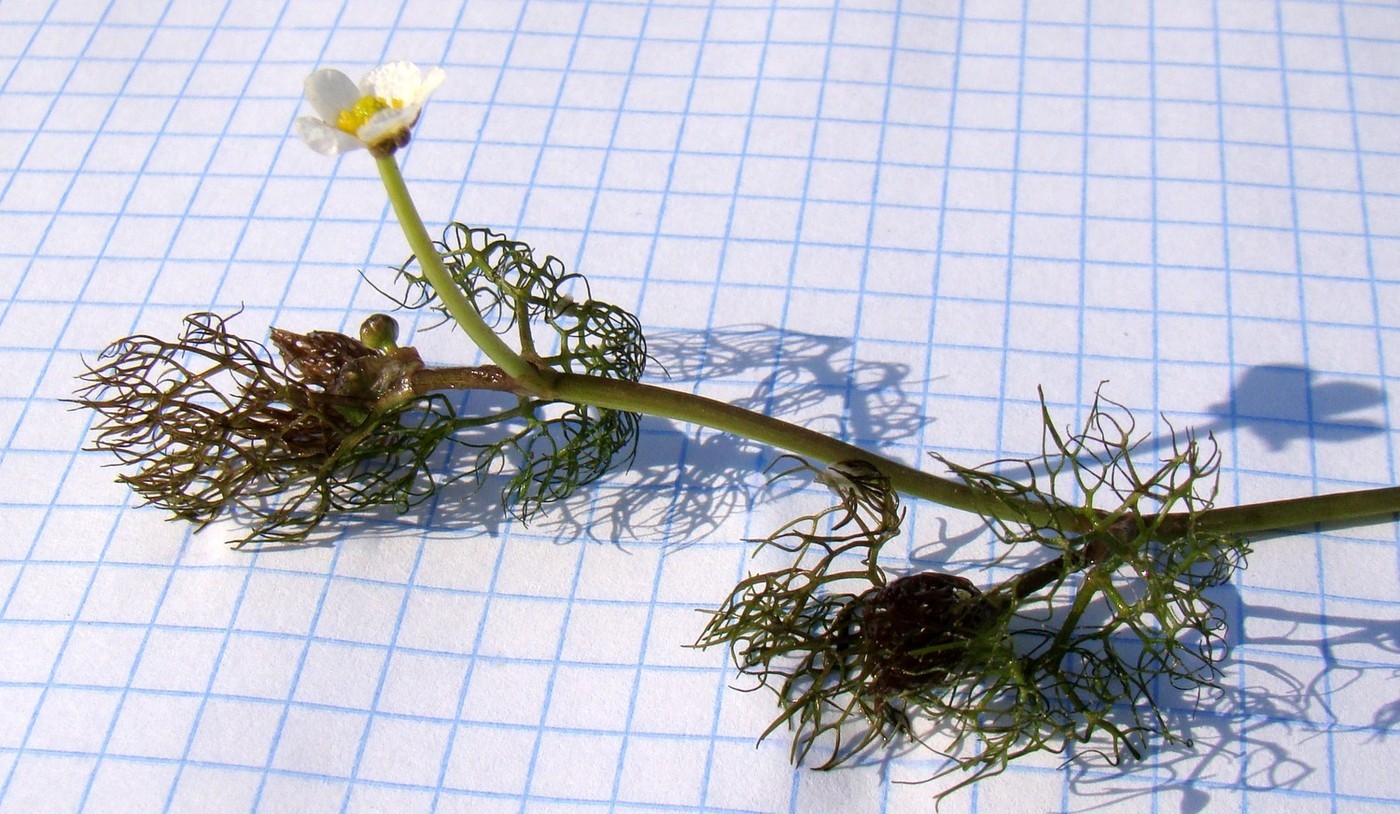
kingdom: Plantae
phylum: Tracheophyta
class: Magnoliopsida
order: Ranunculales
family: Ranunculaceae
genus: Ranunculus
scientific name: Ranunculus trichophyllus
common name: Thread-leaved water-crowfoot
